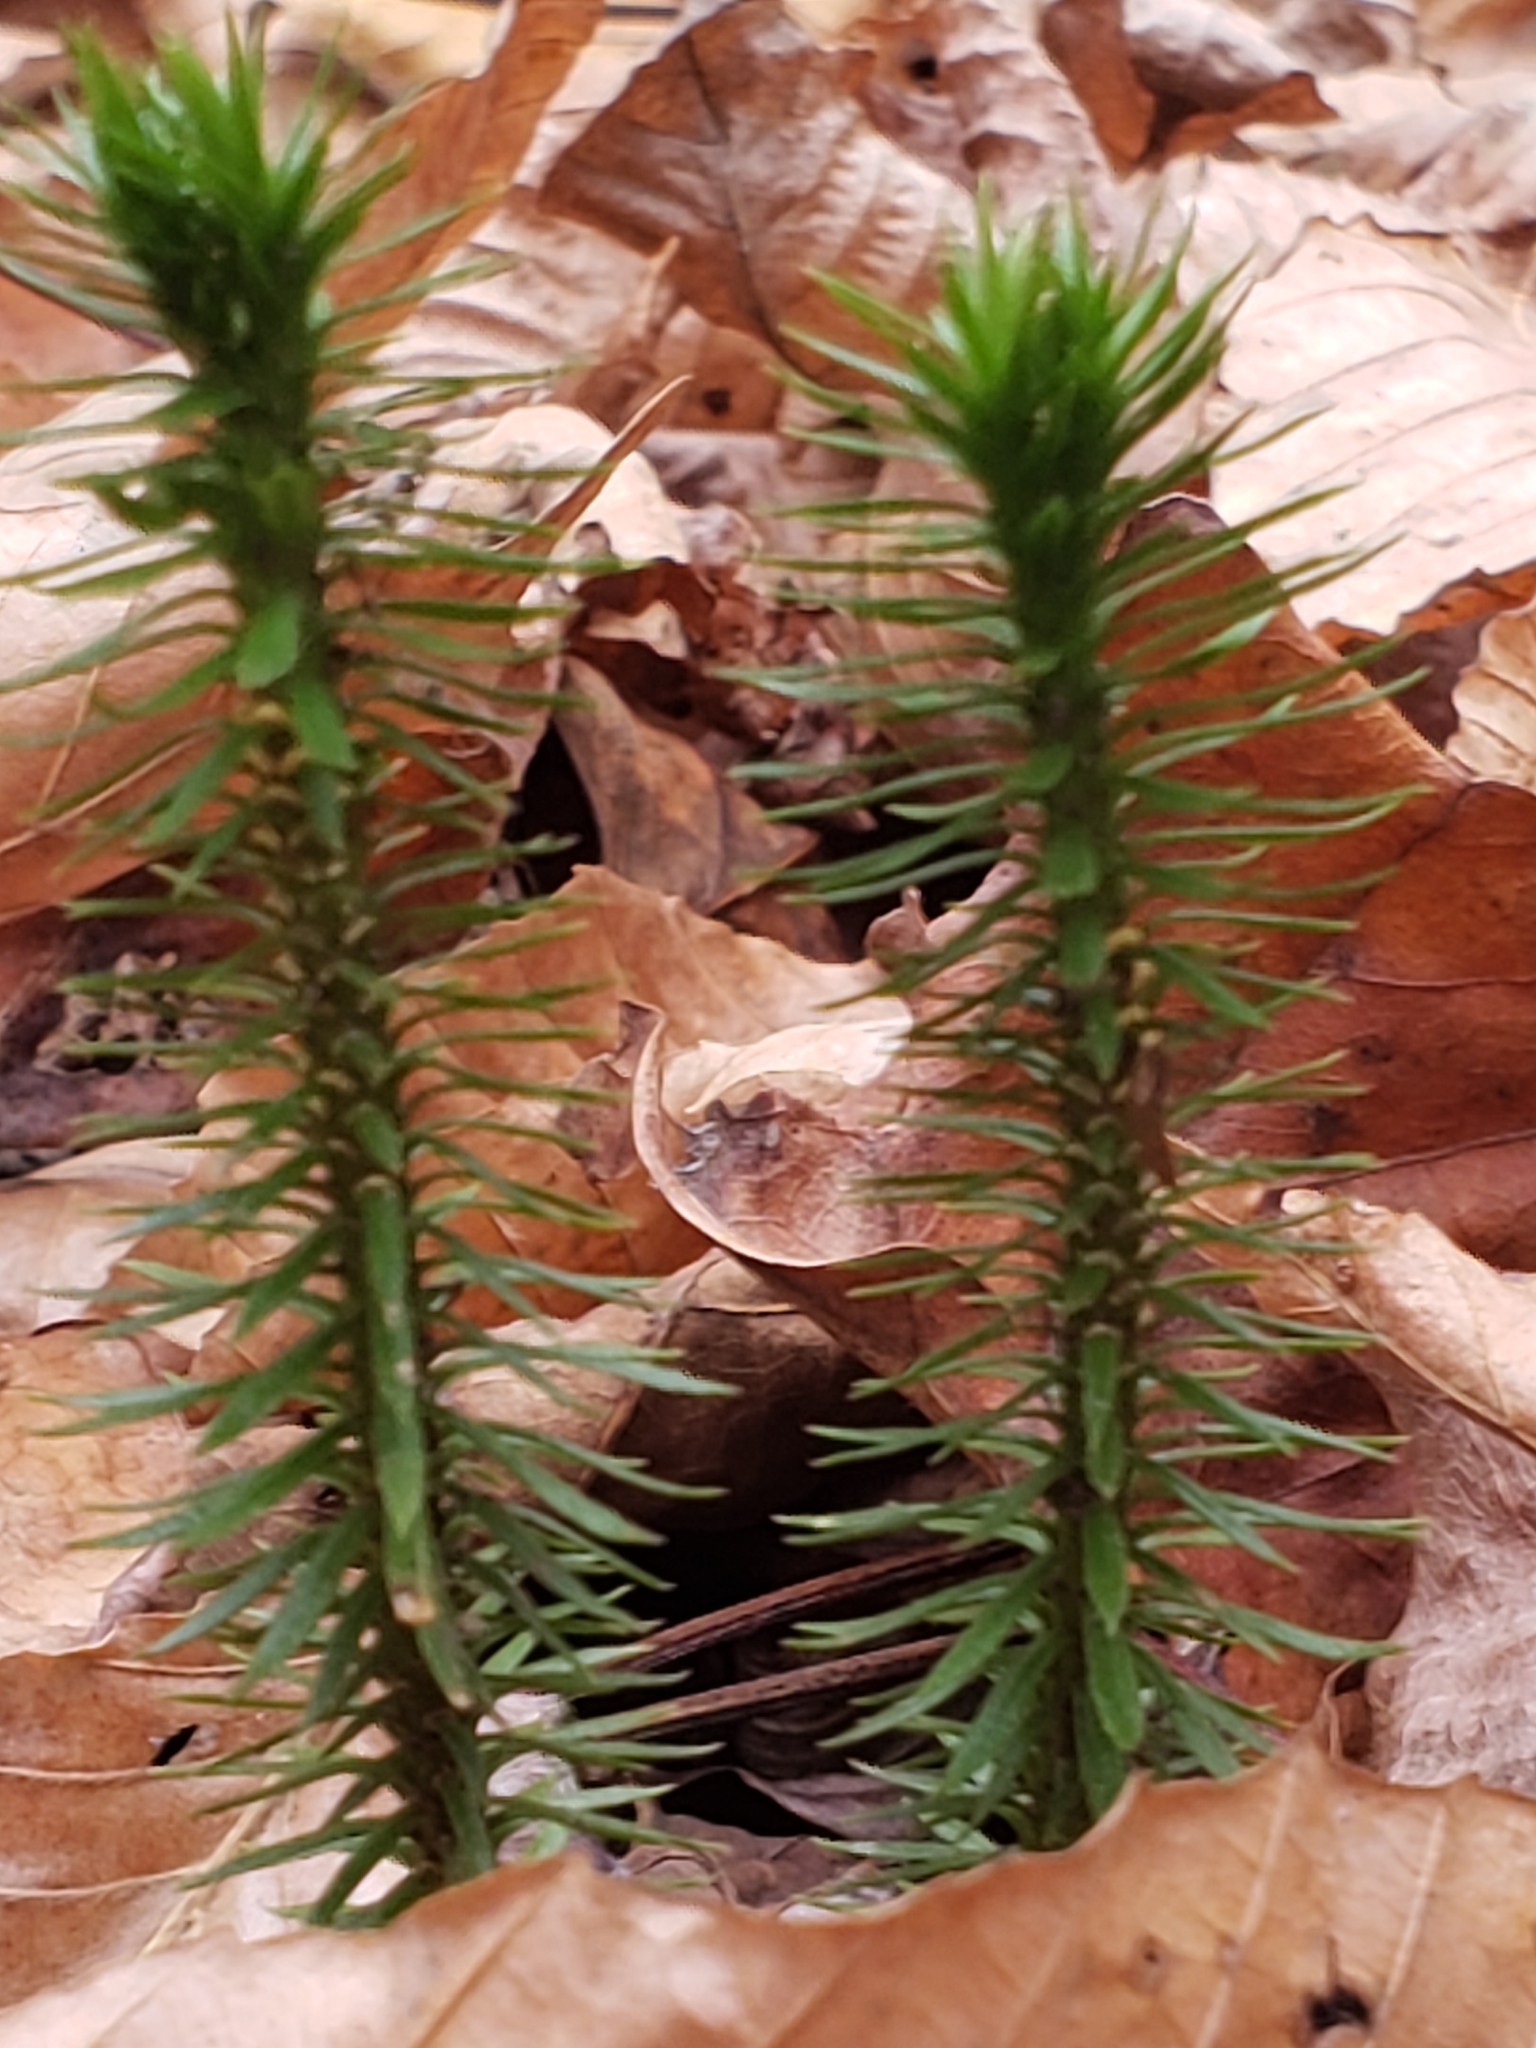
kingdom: Plantae
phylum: Tracheophyta
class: Lycopodiopsida
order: Lycopodiales
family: Lycopodiaceae
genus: Huperzia
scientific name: Huperzia lucidula
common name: Shining clubmoss
